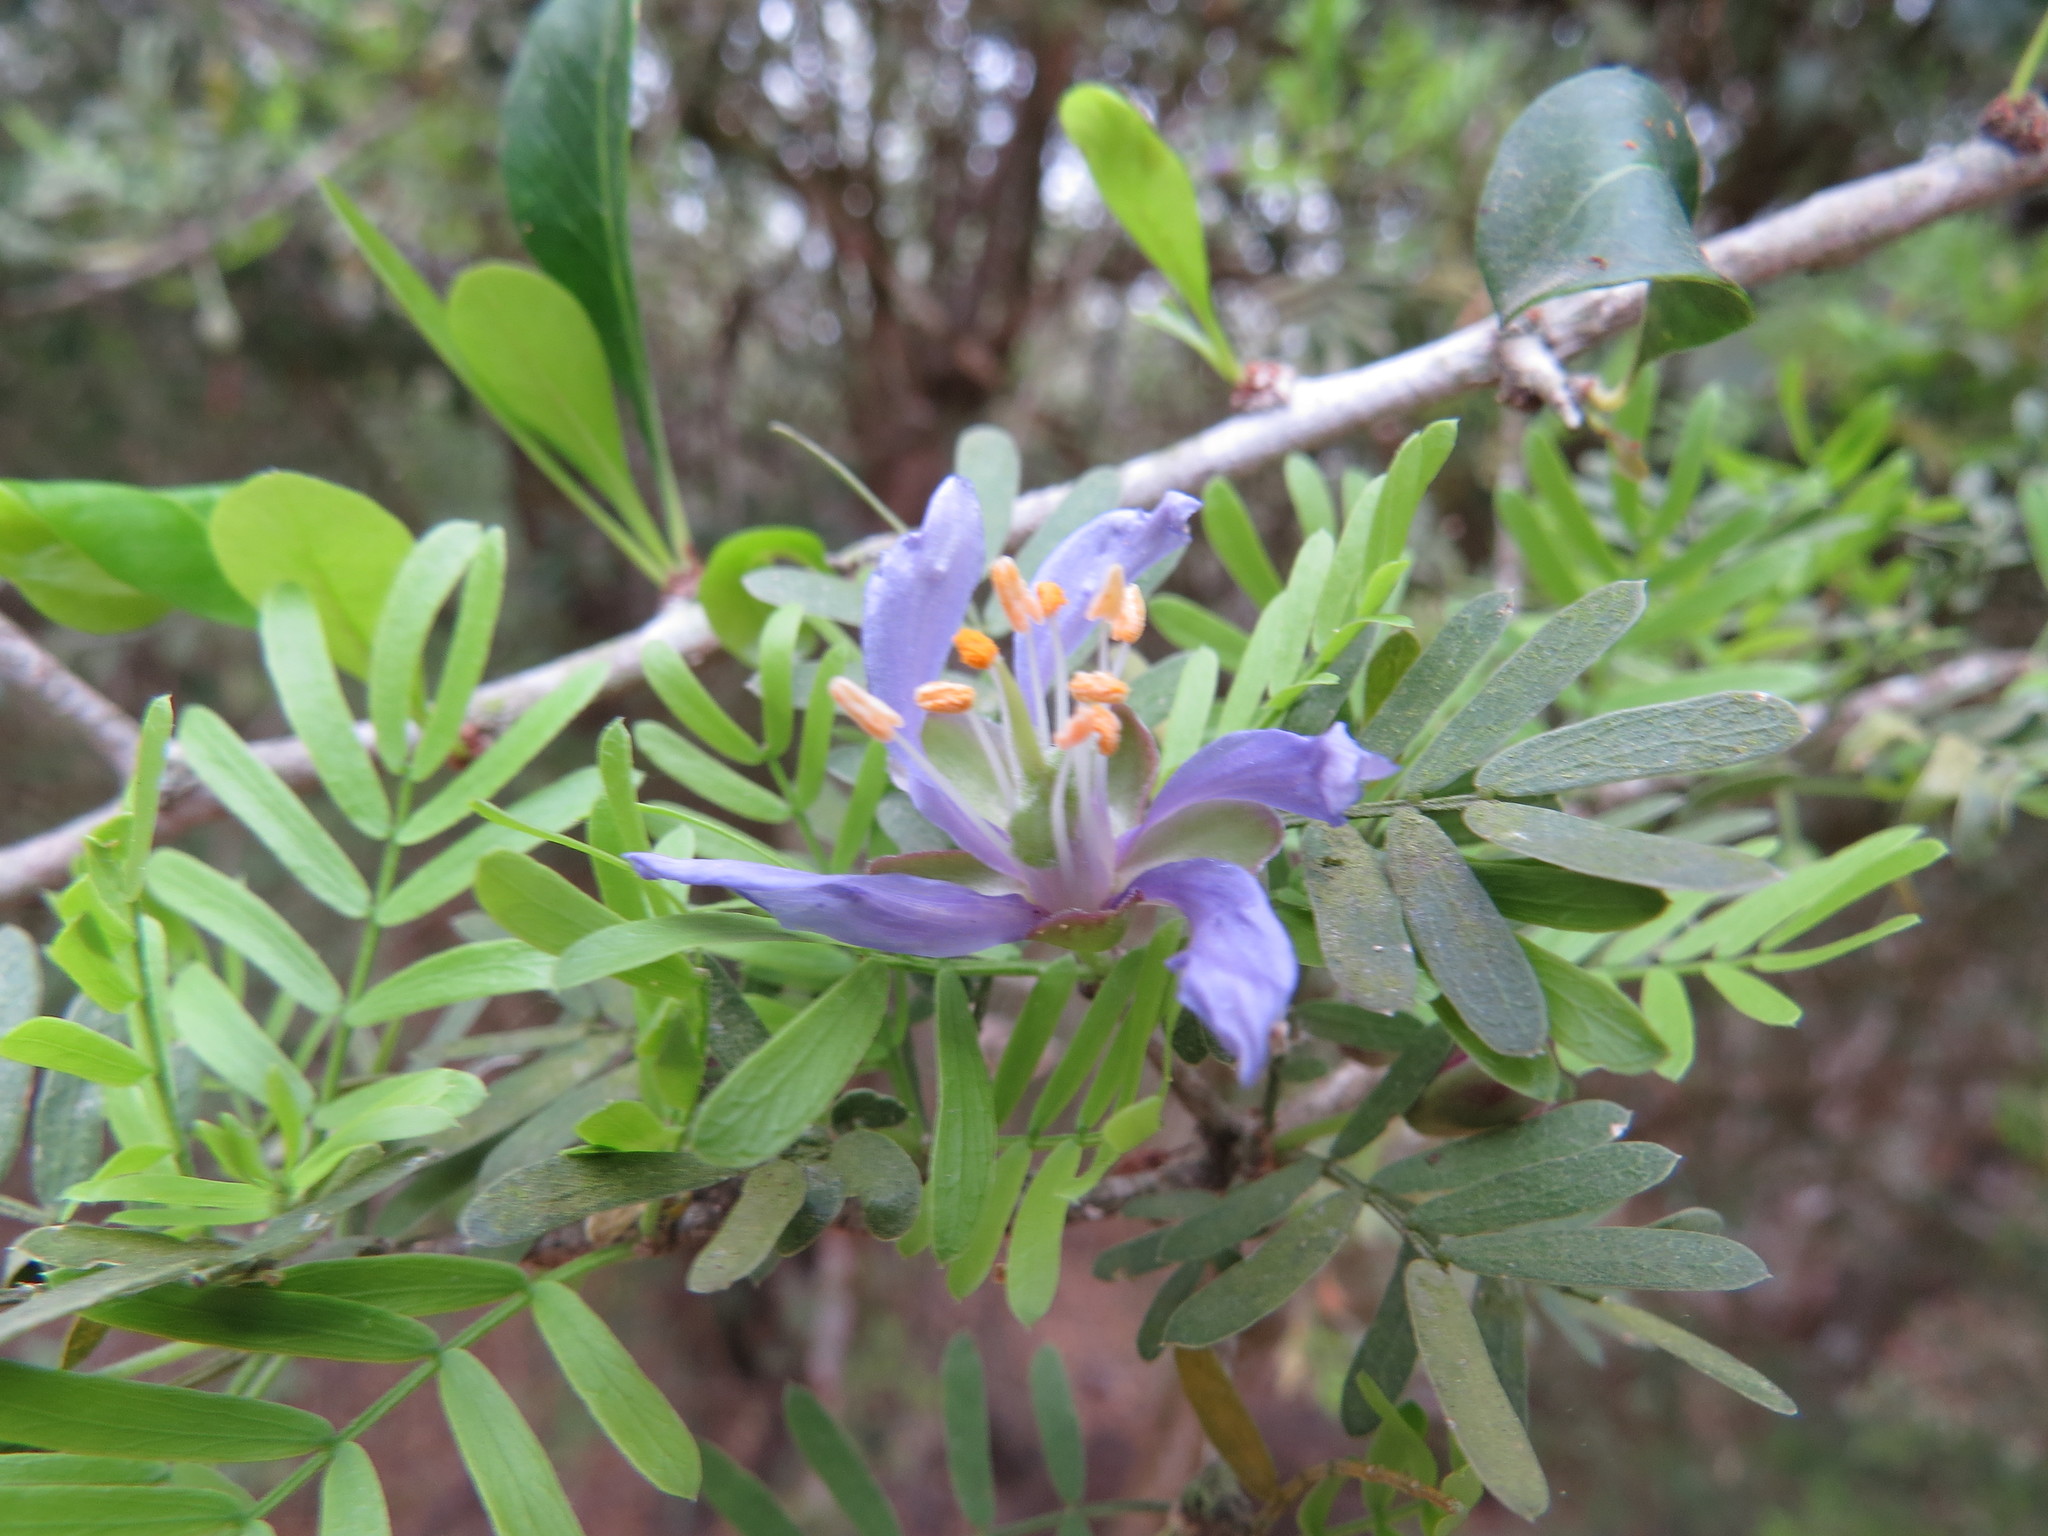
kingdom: Plantae
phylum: Tracheophyta
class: Magnoliopsida
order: Zygophyllales
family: Zygophyllaceae
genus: Porlieria
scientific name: Porlieria angustifolia
